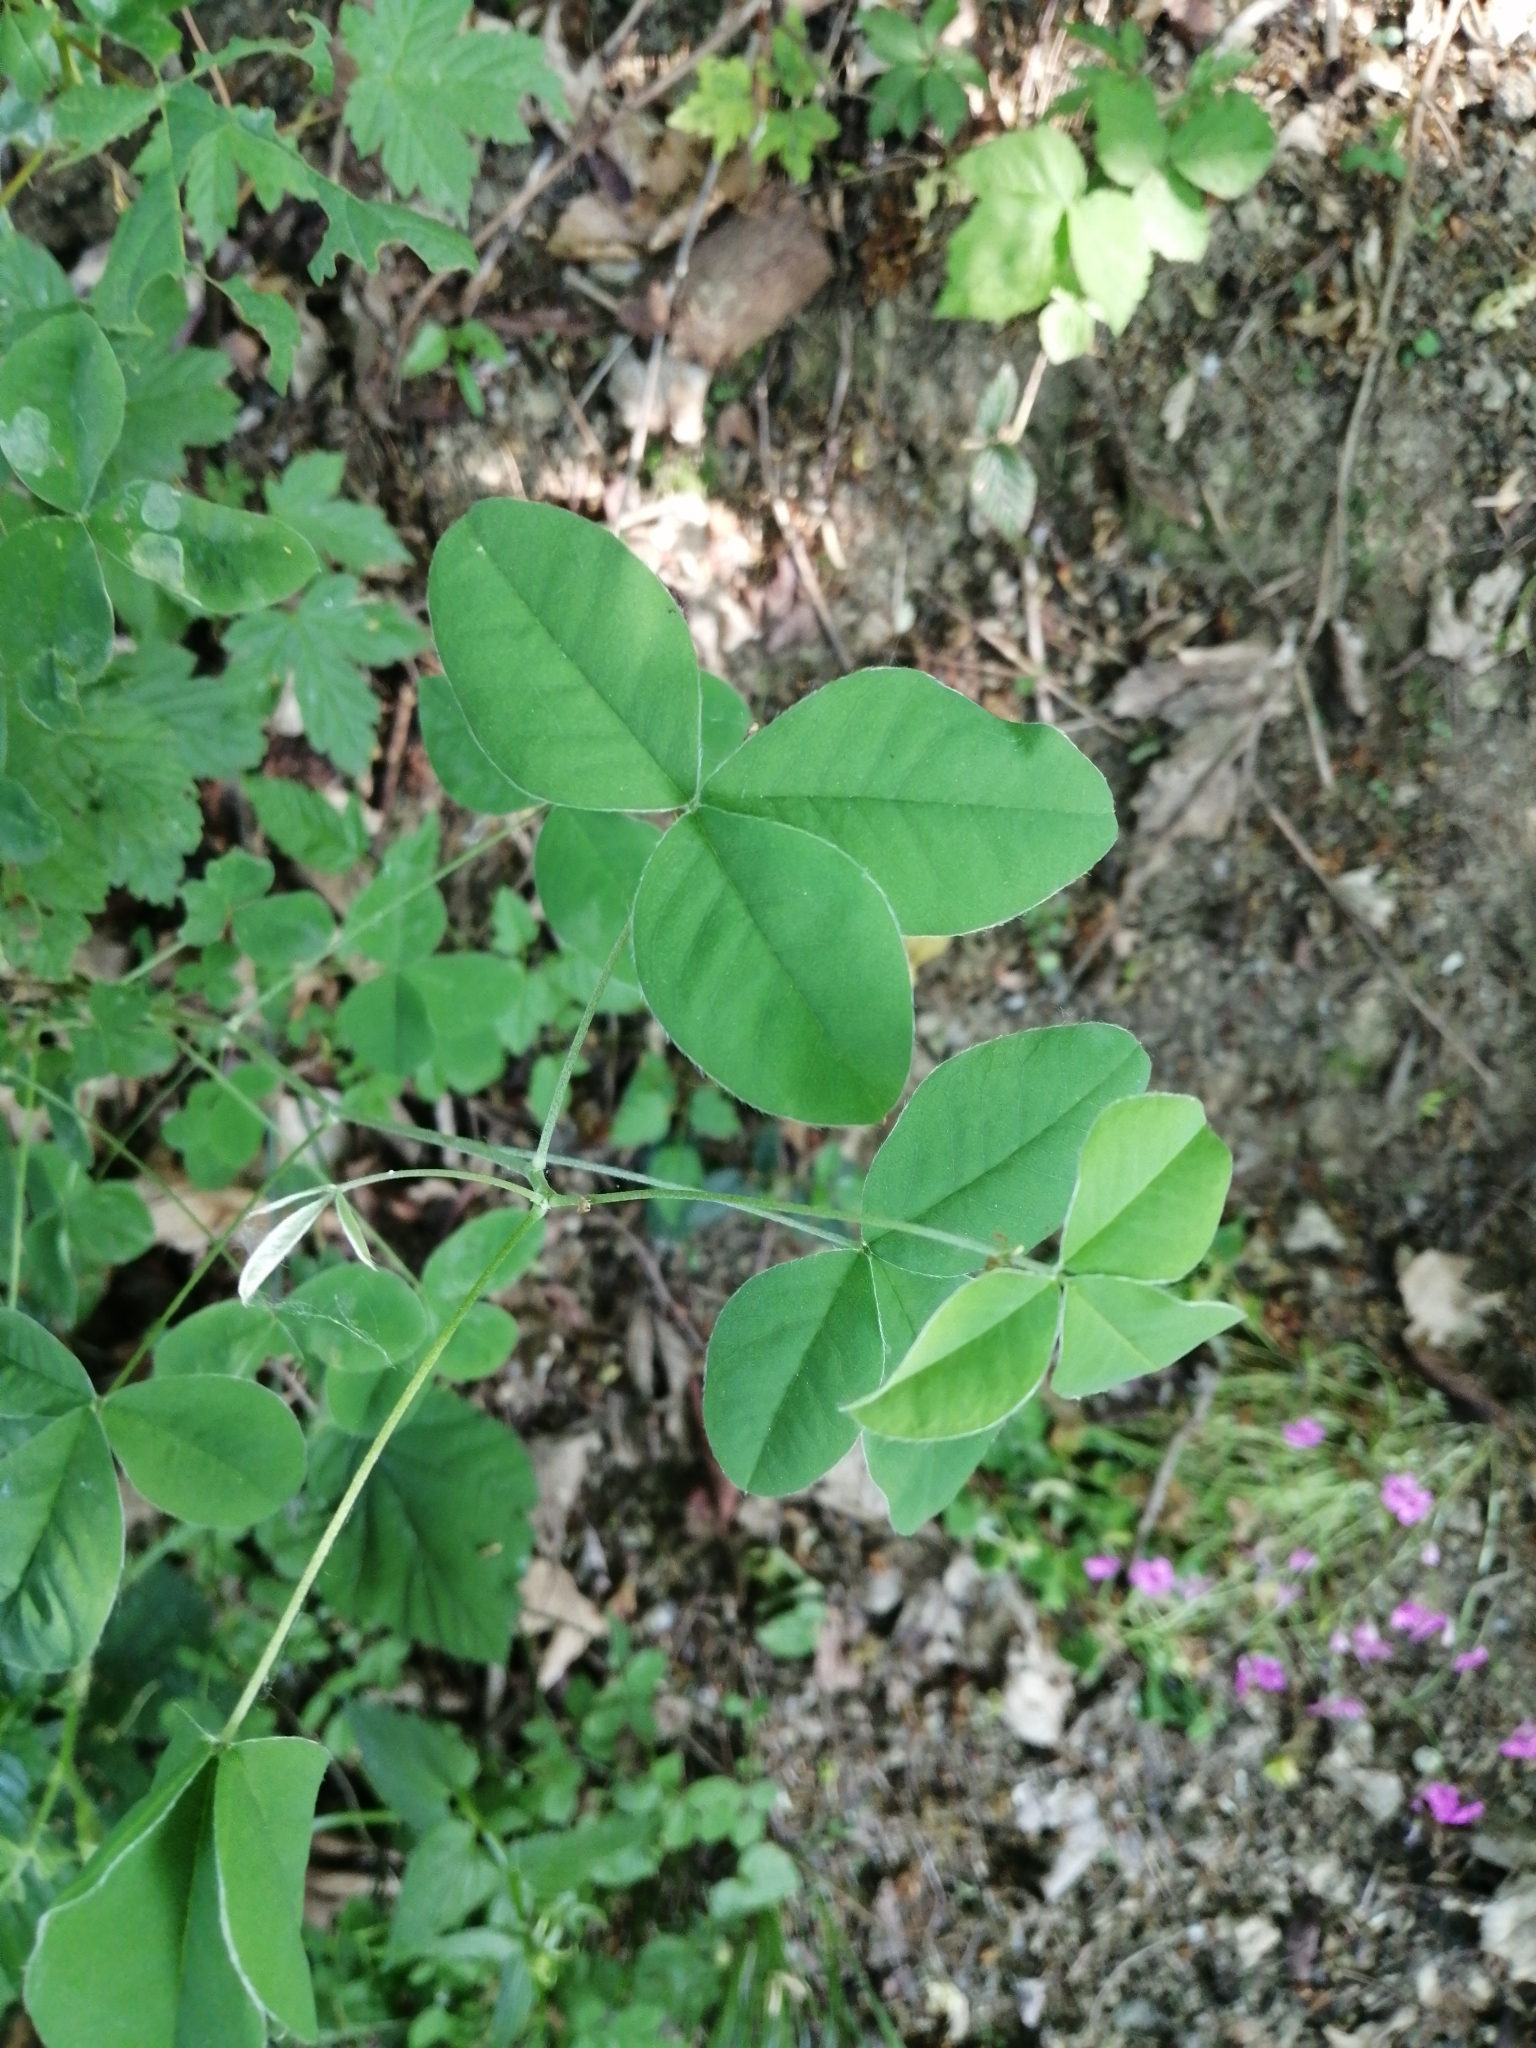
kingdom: Plantae
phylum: Tracheophyta
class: Magnoliopsida
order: Fabales
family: Fabaceae
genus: Laburnum
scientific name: Laburnum anagyroides
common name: Laburnum
